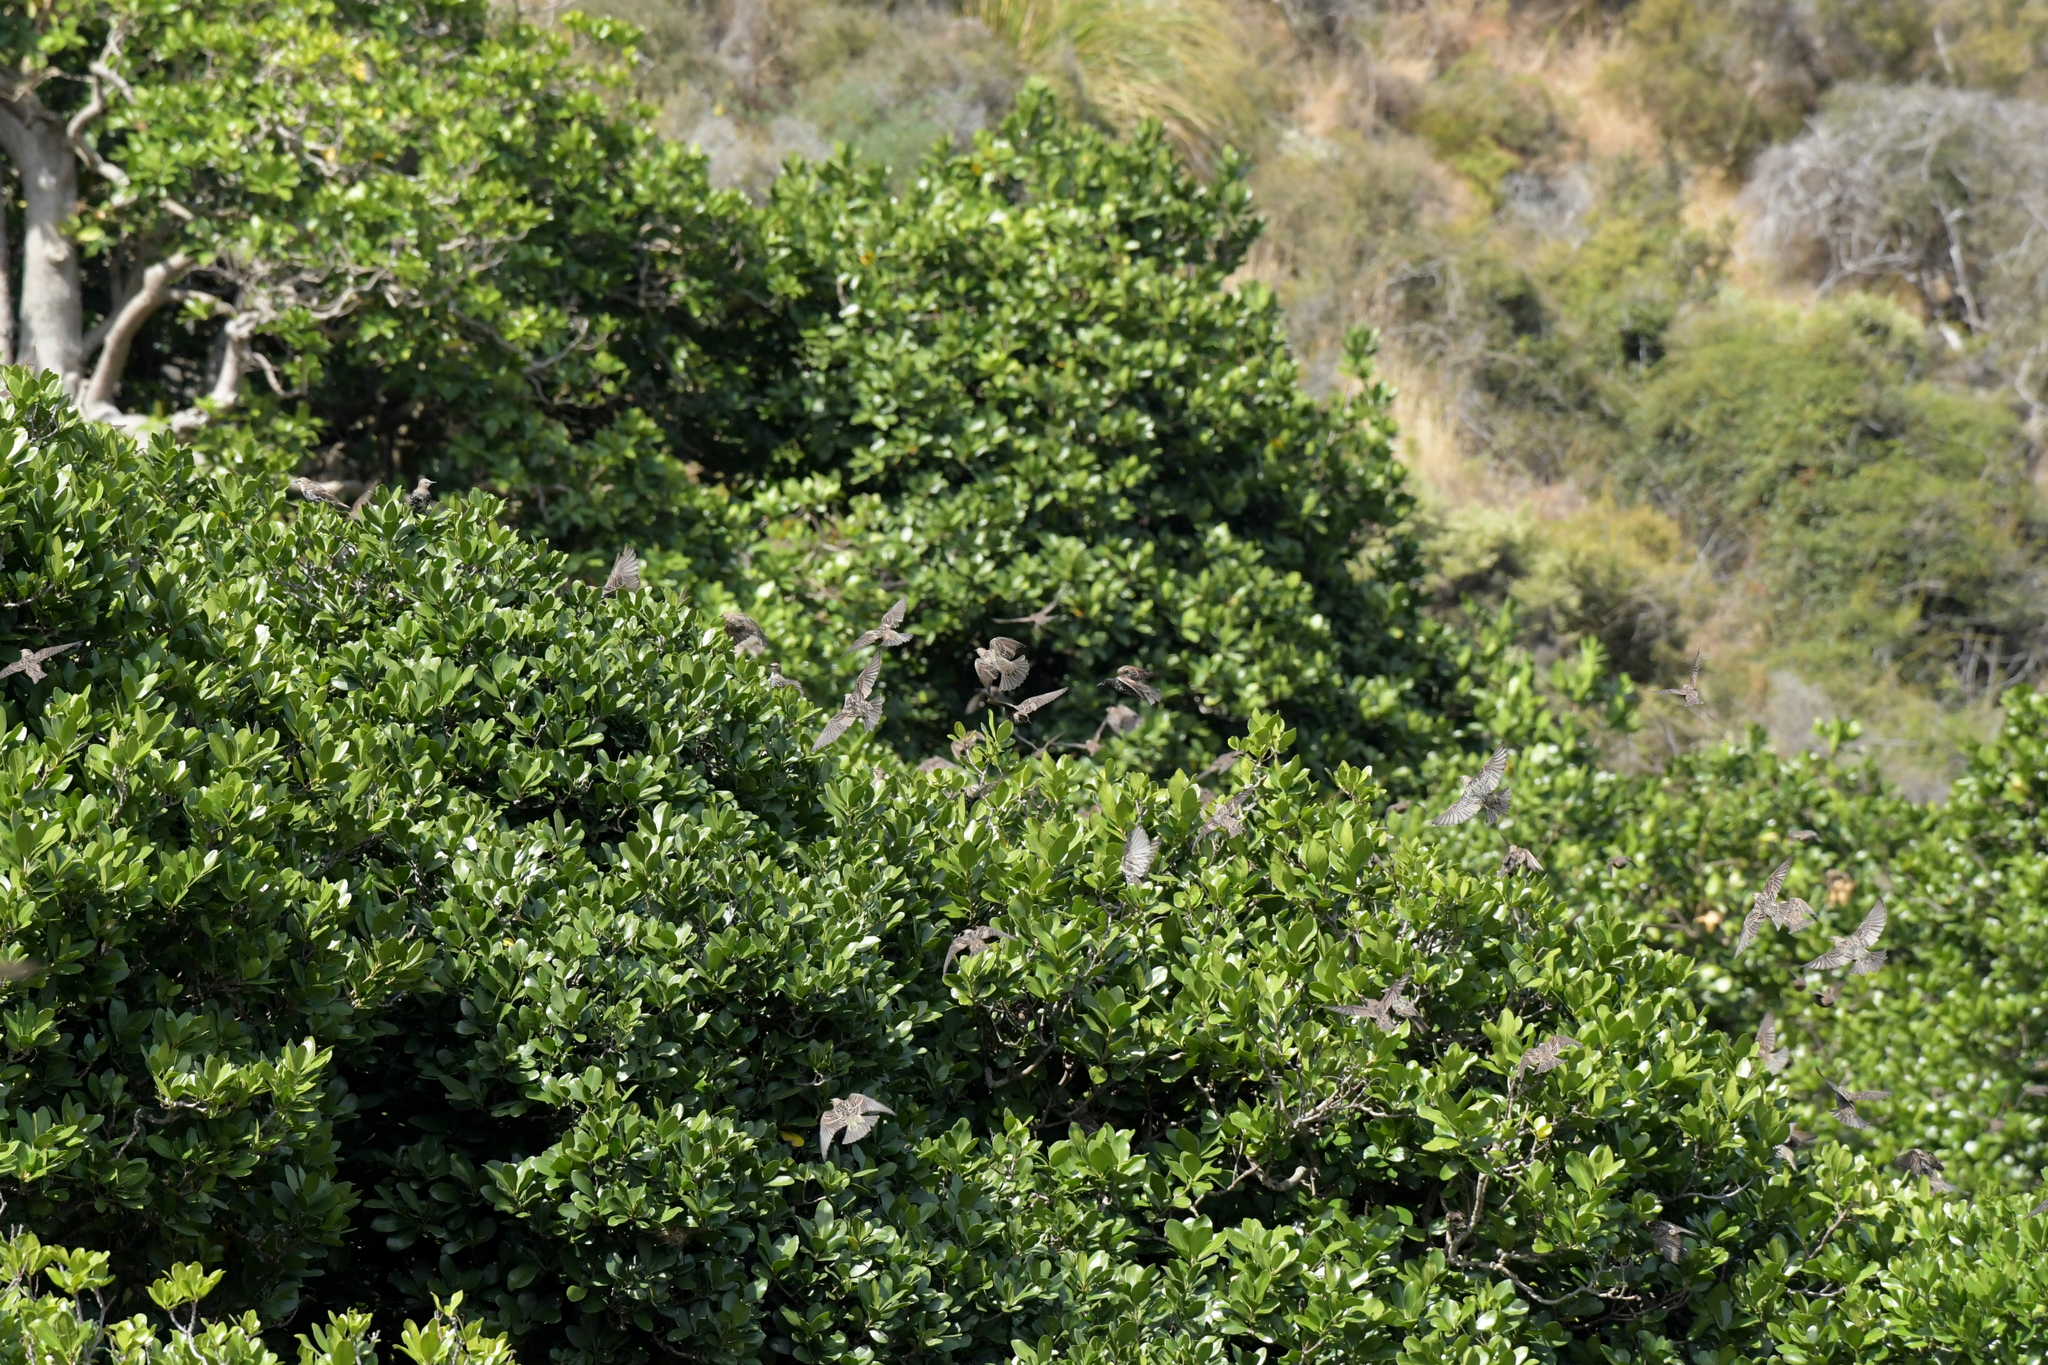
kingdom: Animalia
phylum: Chordata
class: Aves
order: Passeriformes
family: Sturnidae
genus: Sturnus
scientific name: Sturnus vulgaris
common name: Common starling
